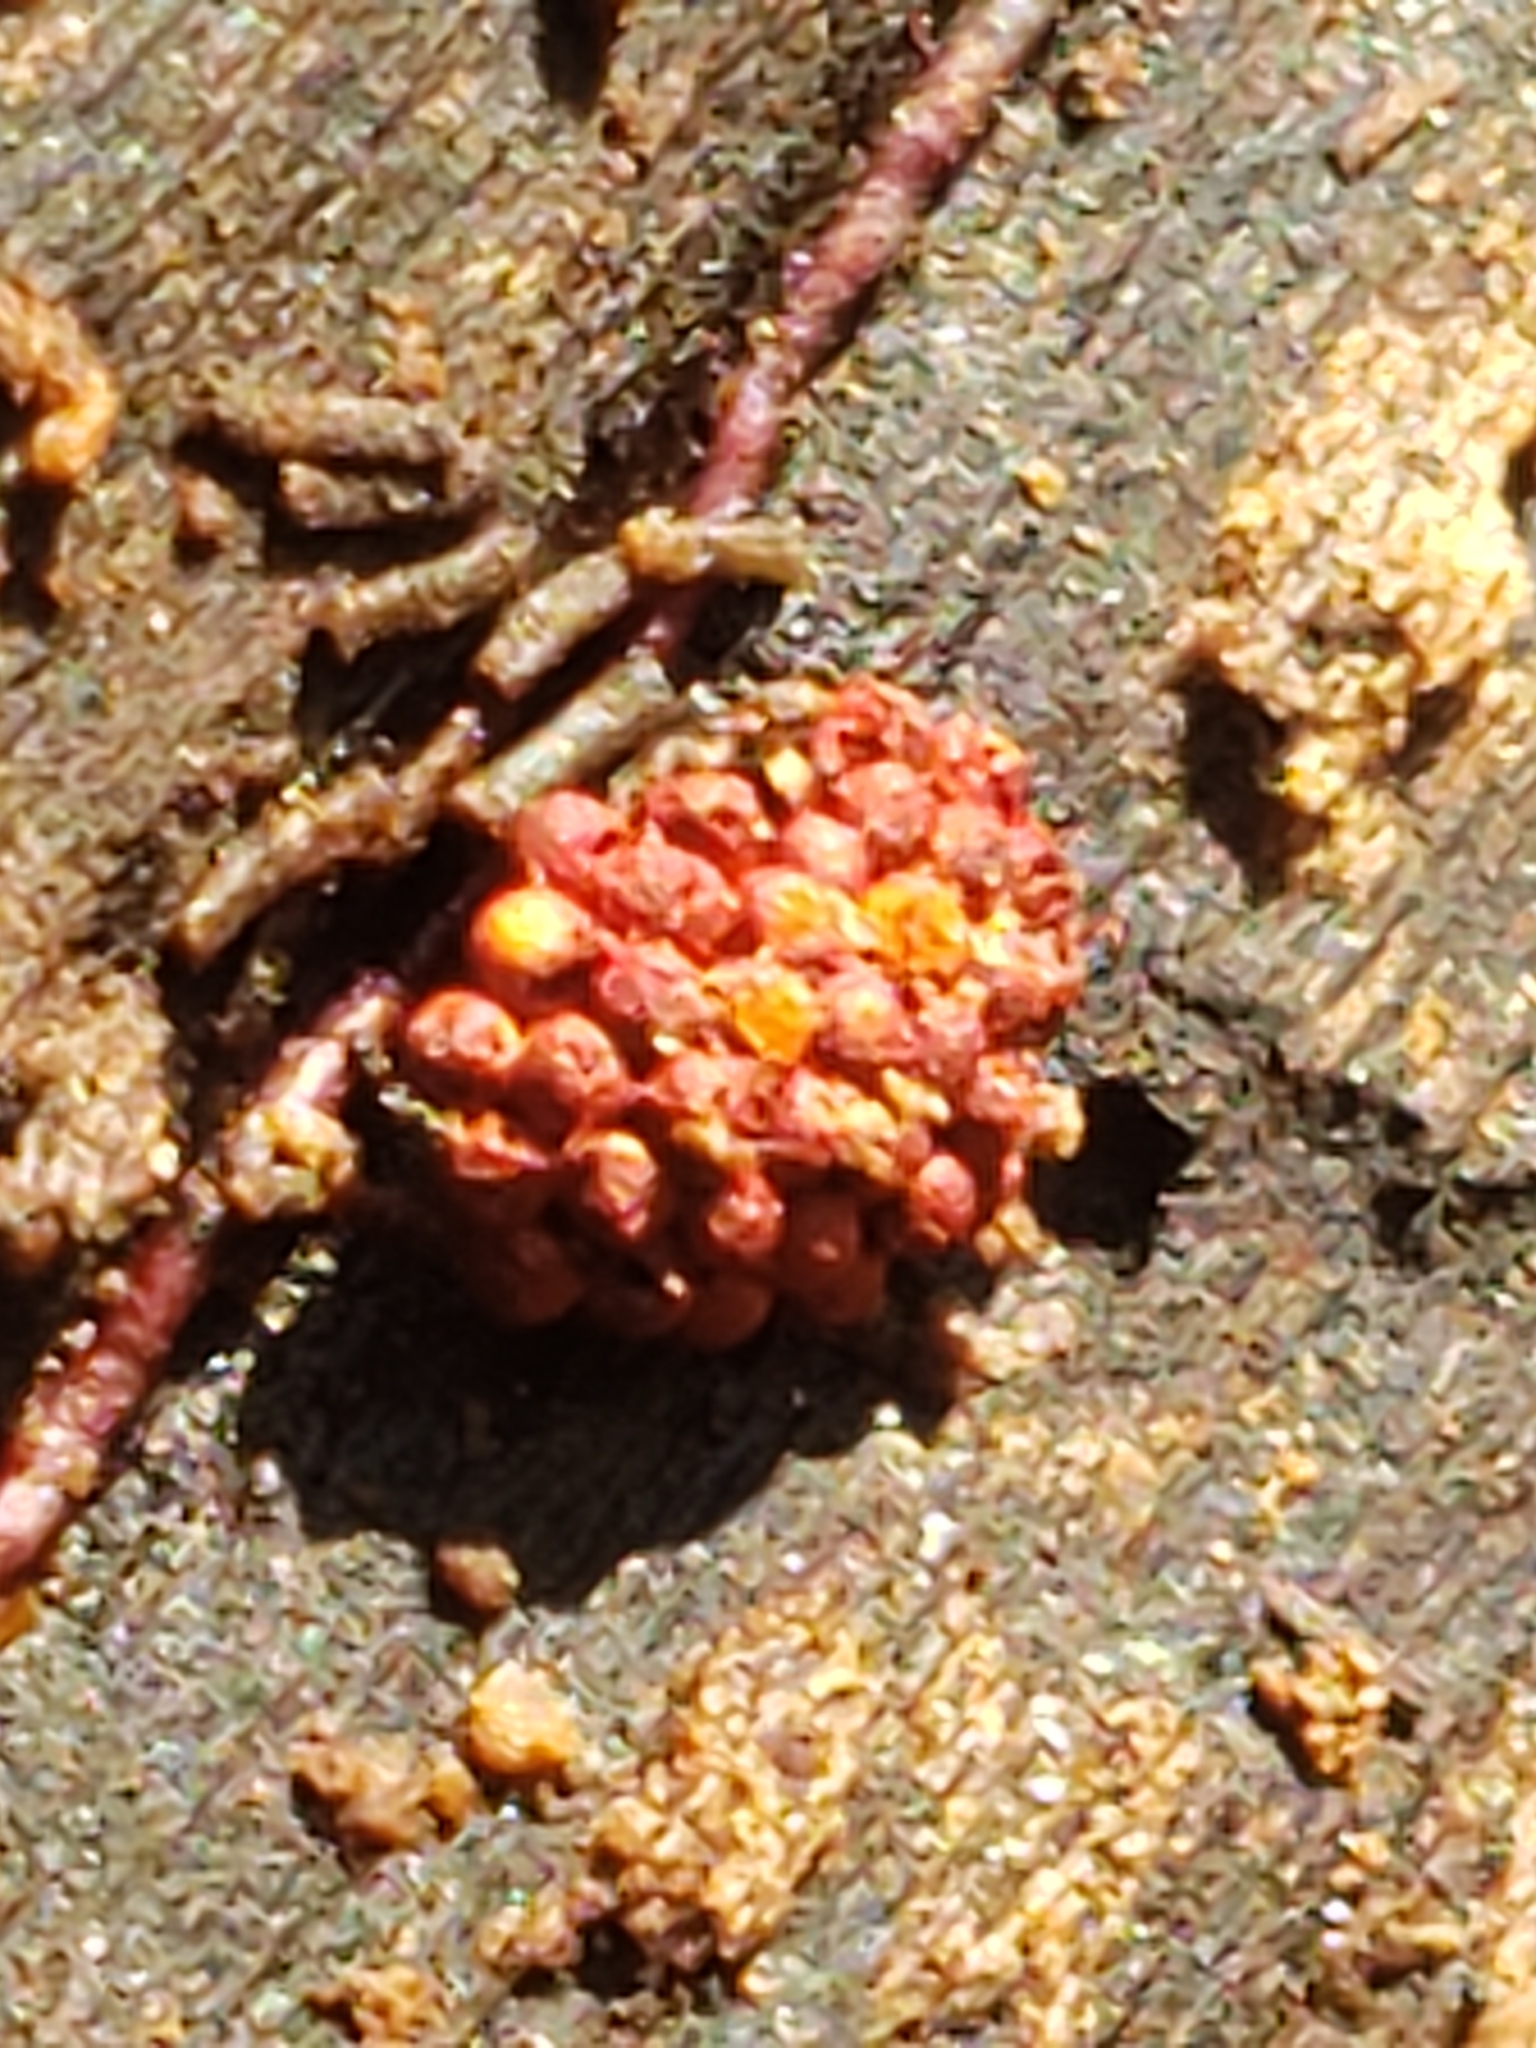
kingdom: Protozoa
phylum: Mycetozoa
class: Myxomycetes
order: Trichiales
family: Trichiaceae
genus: Metatrichia
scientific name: Metatrichia vesparia
